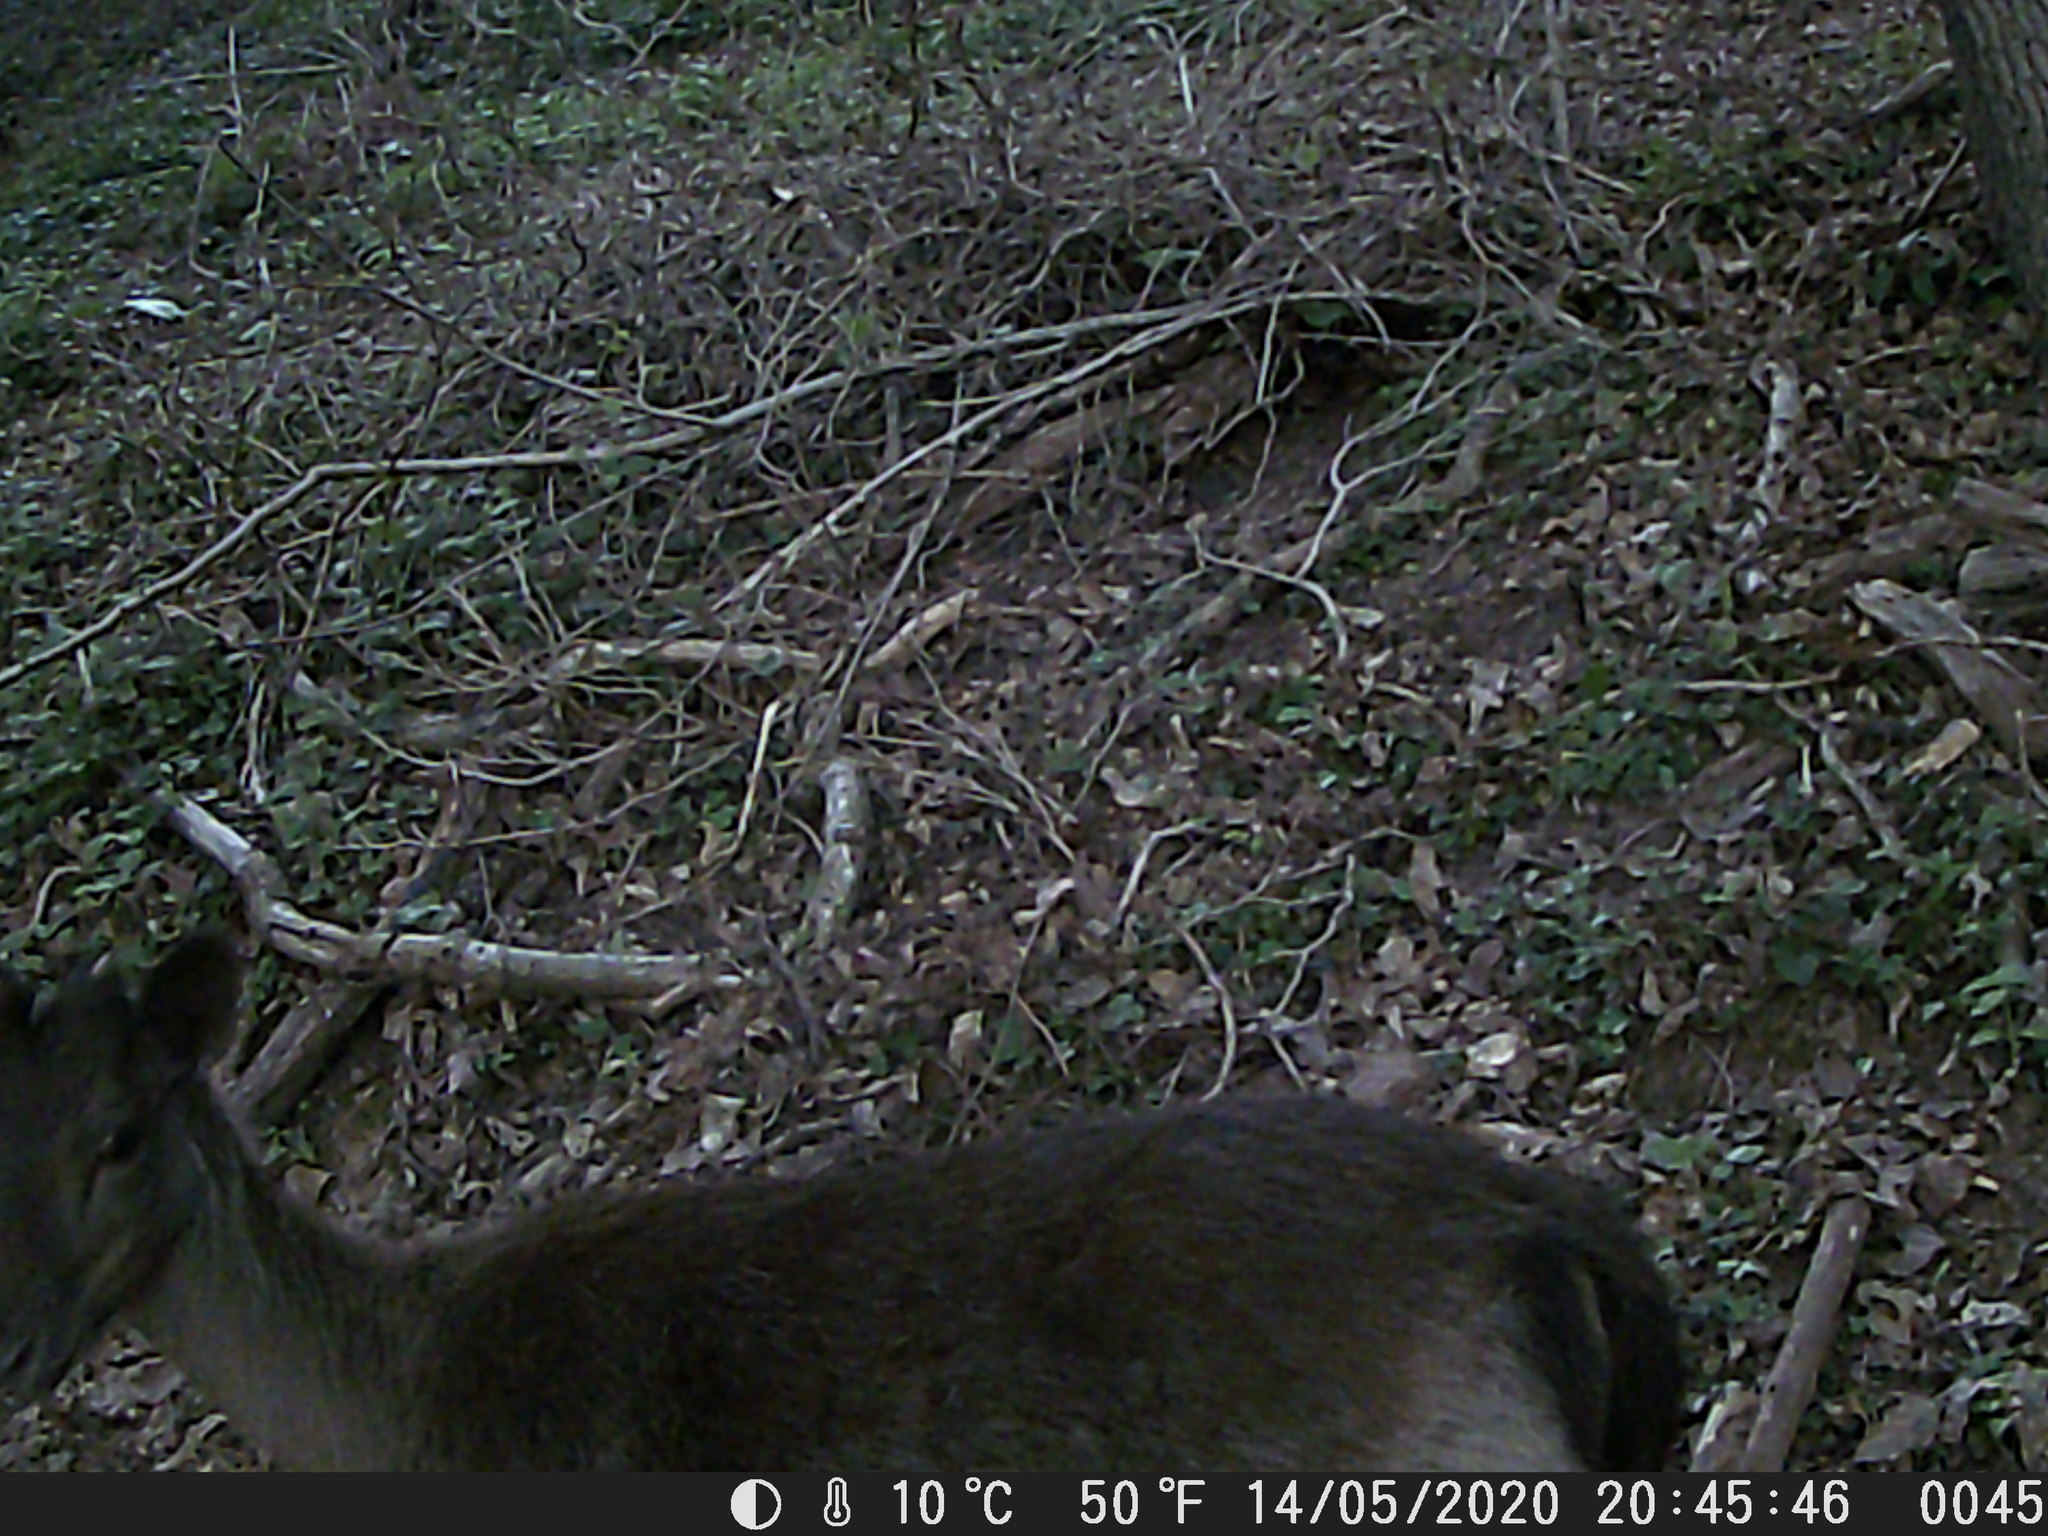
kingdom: Animalia
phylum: Chordata
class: Mammalia
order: Artiodactyla
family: Cervidae
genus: Dama
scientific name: Dama dama
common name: Fallow deer
